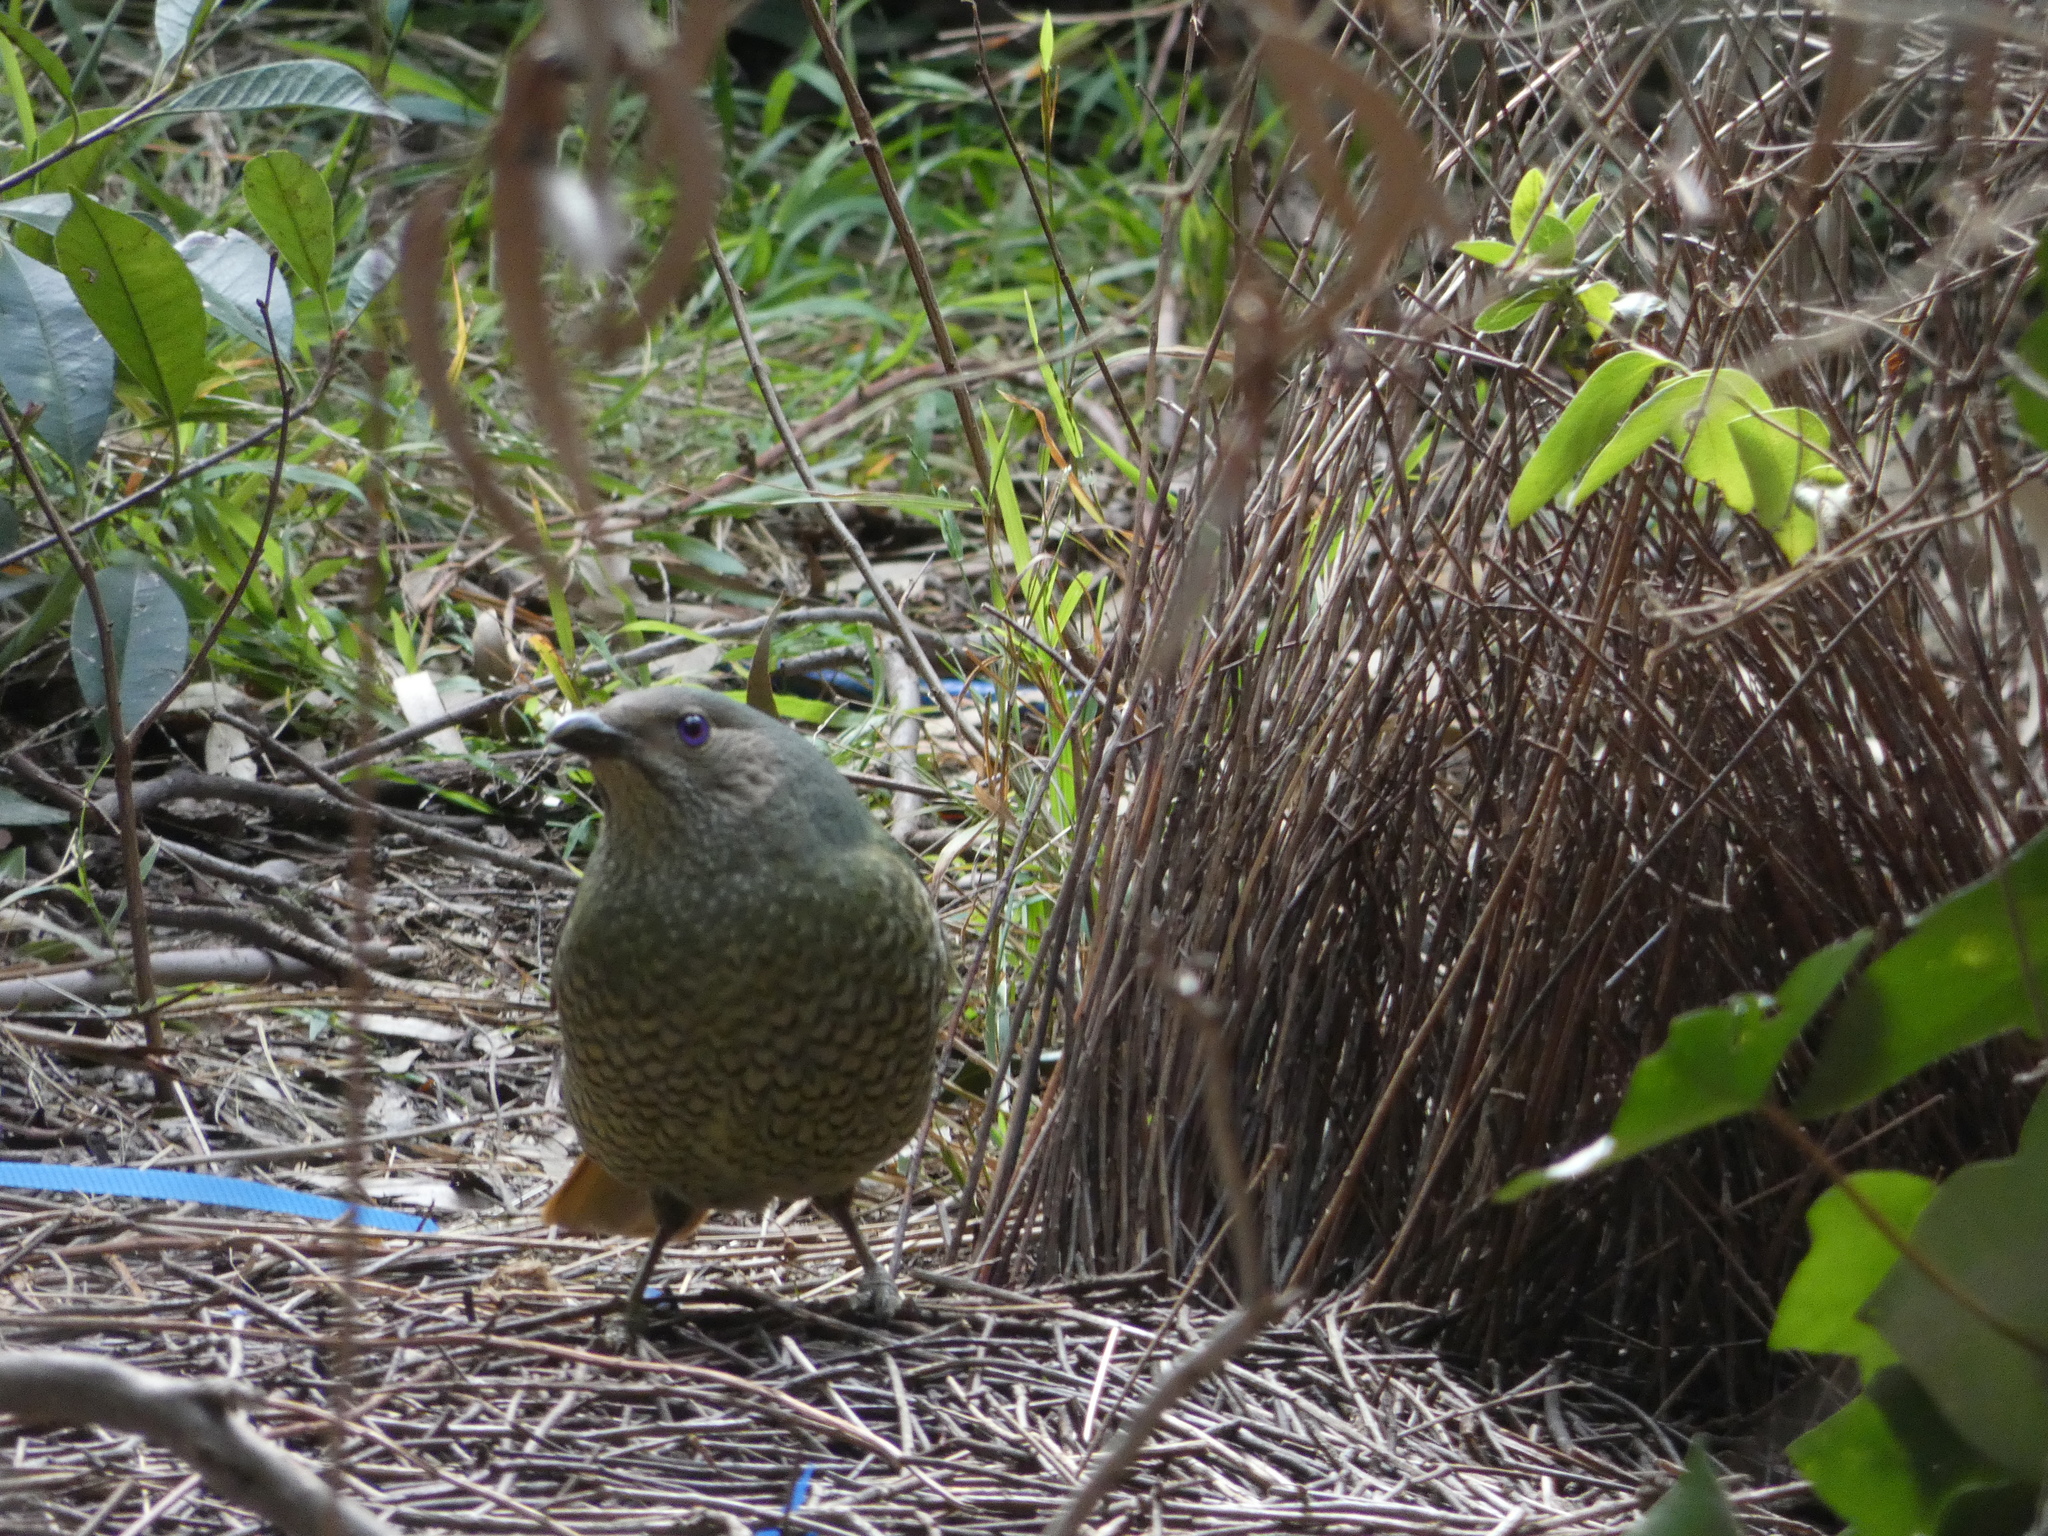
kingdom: Animalia
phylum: Chordata
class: Aves
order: Passeriformes
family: Ptilonorhynchidae
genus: Ptilonorhynchus
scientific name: Ptilonorhynchus violaceus
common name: Satin bowerbird
